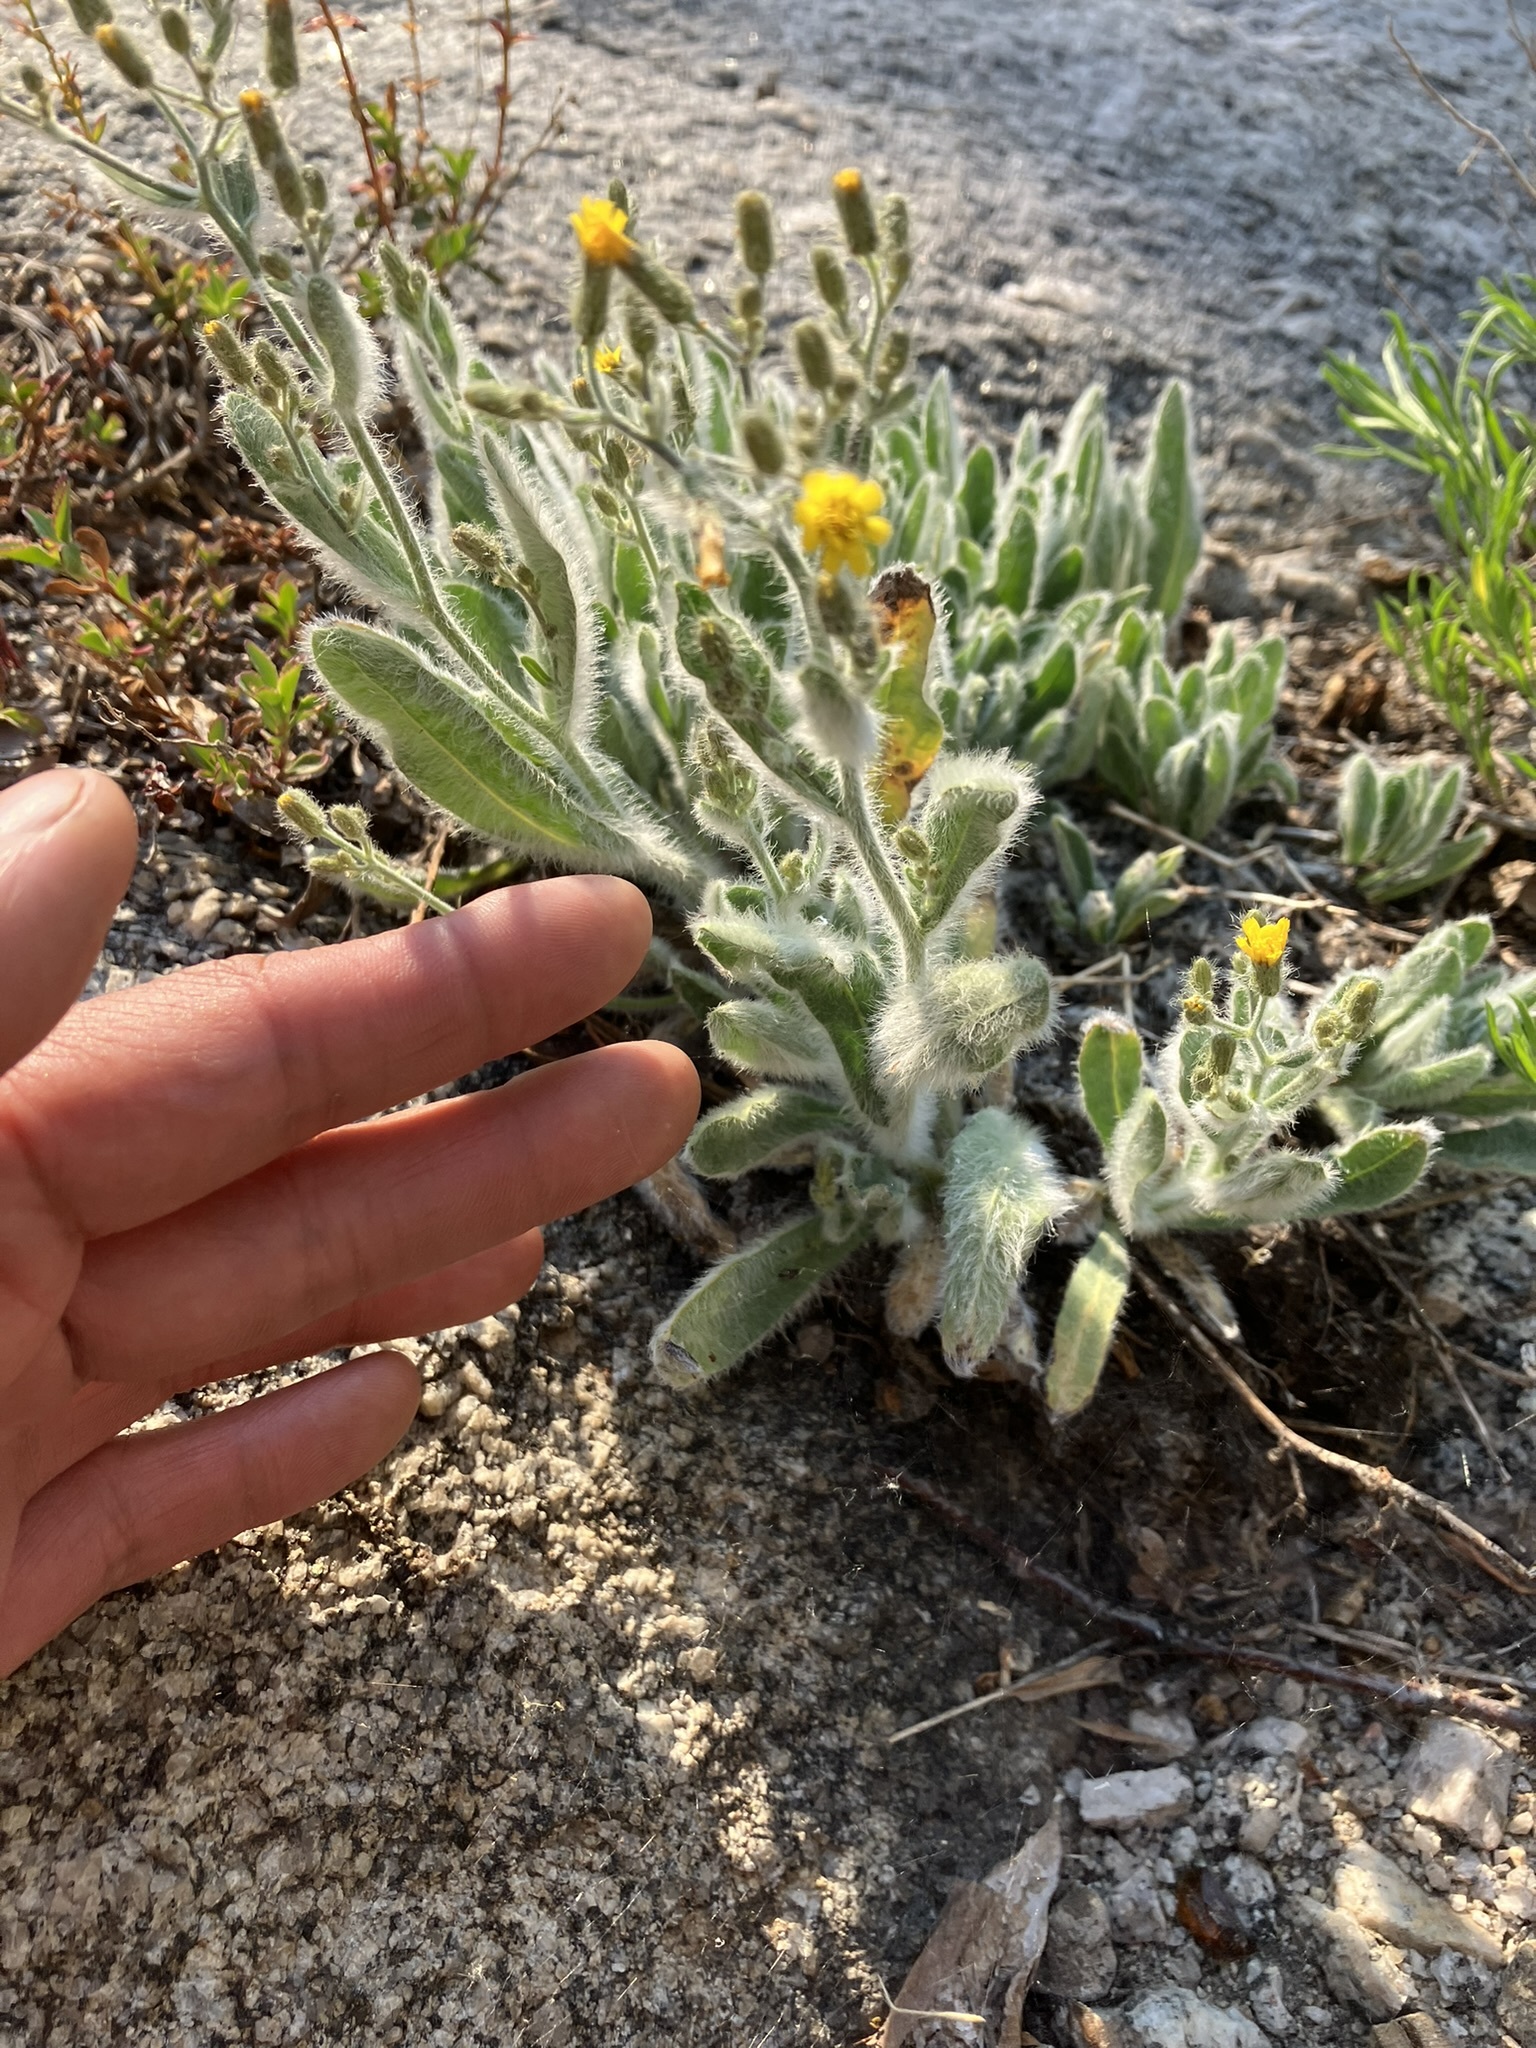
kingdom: Plantae
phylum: Tracheophyta
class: Magnoliopsida
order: Asterales
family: Asteraceae
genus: Hieracium
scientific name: Hieracium horridum
